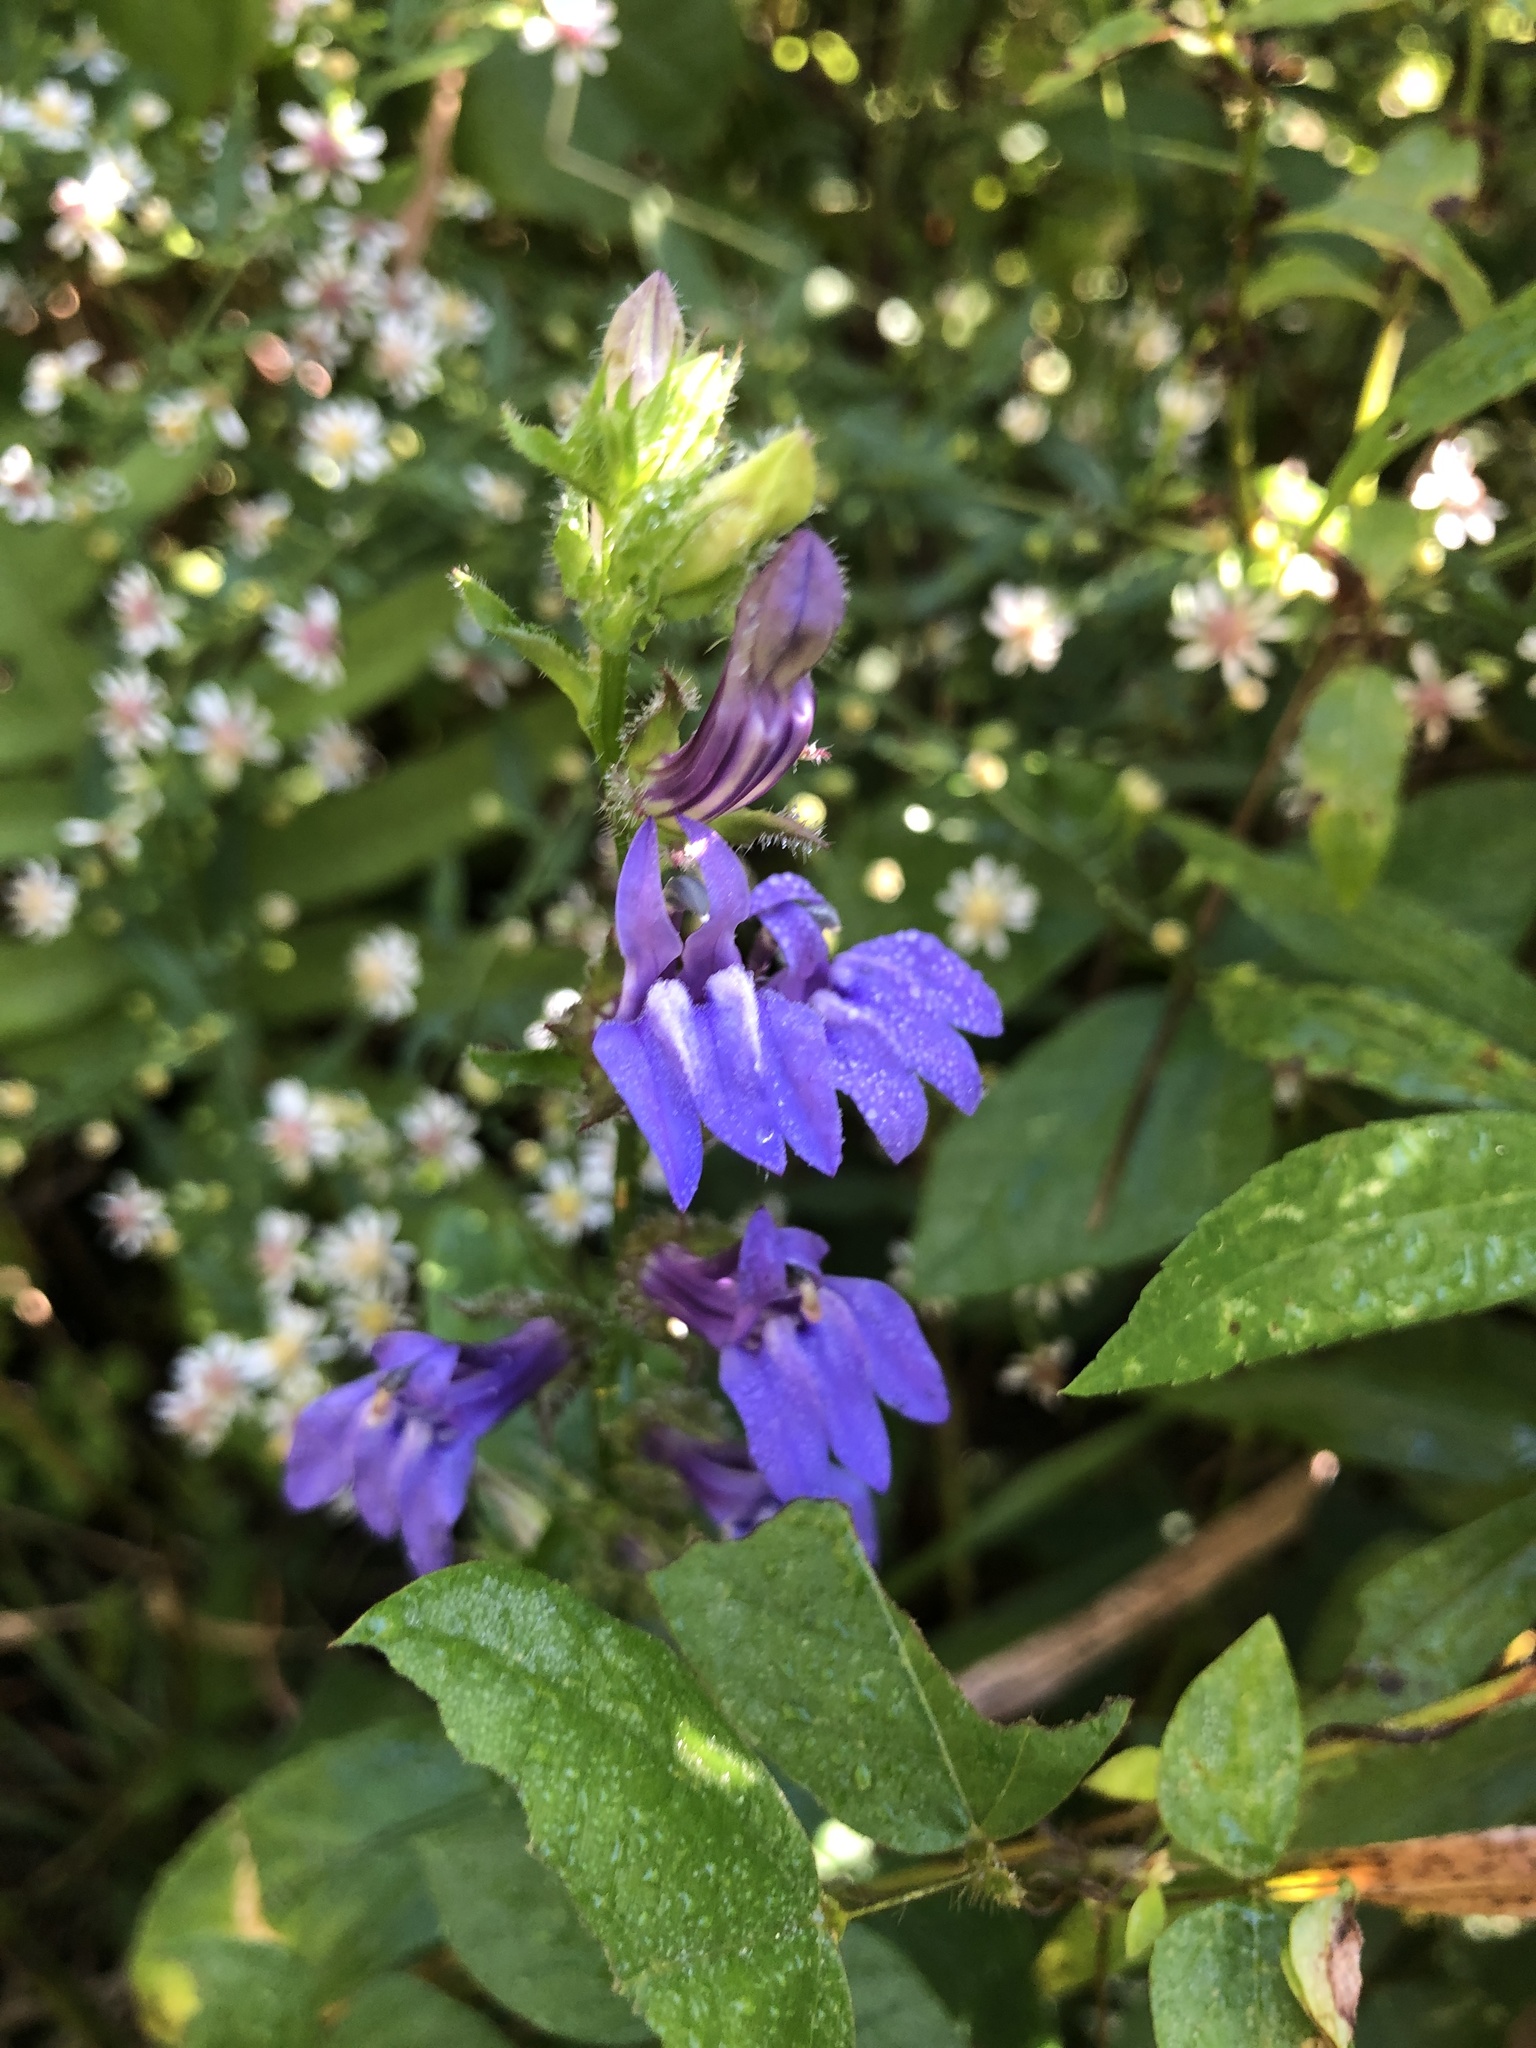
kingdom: Plantae
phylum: Tracheophyta
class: Magnoliopsida
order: Asterales
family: Campanulaceae
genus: Lobelia
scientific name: Lobelia siphilitica
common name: Great lobelia
